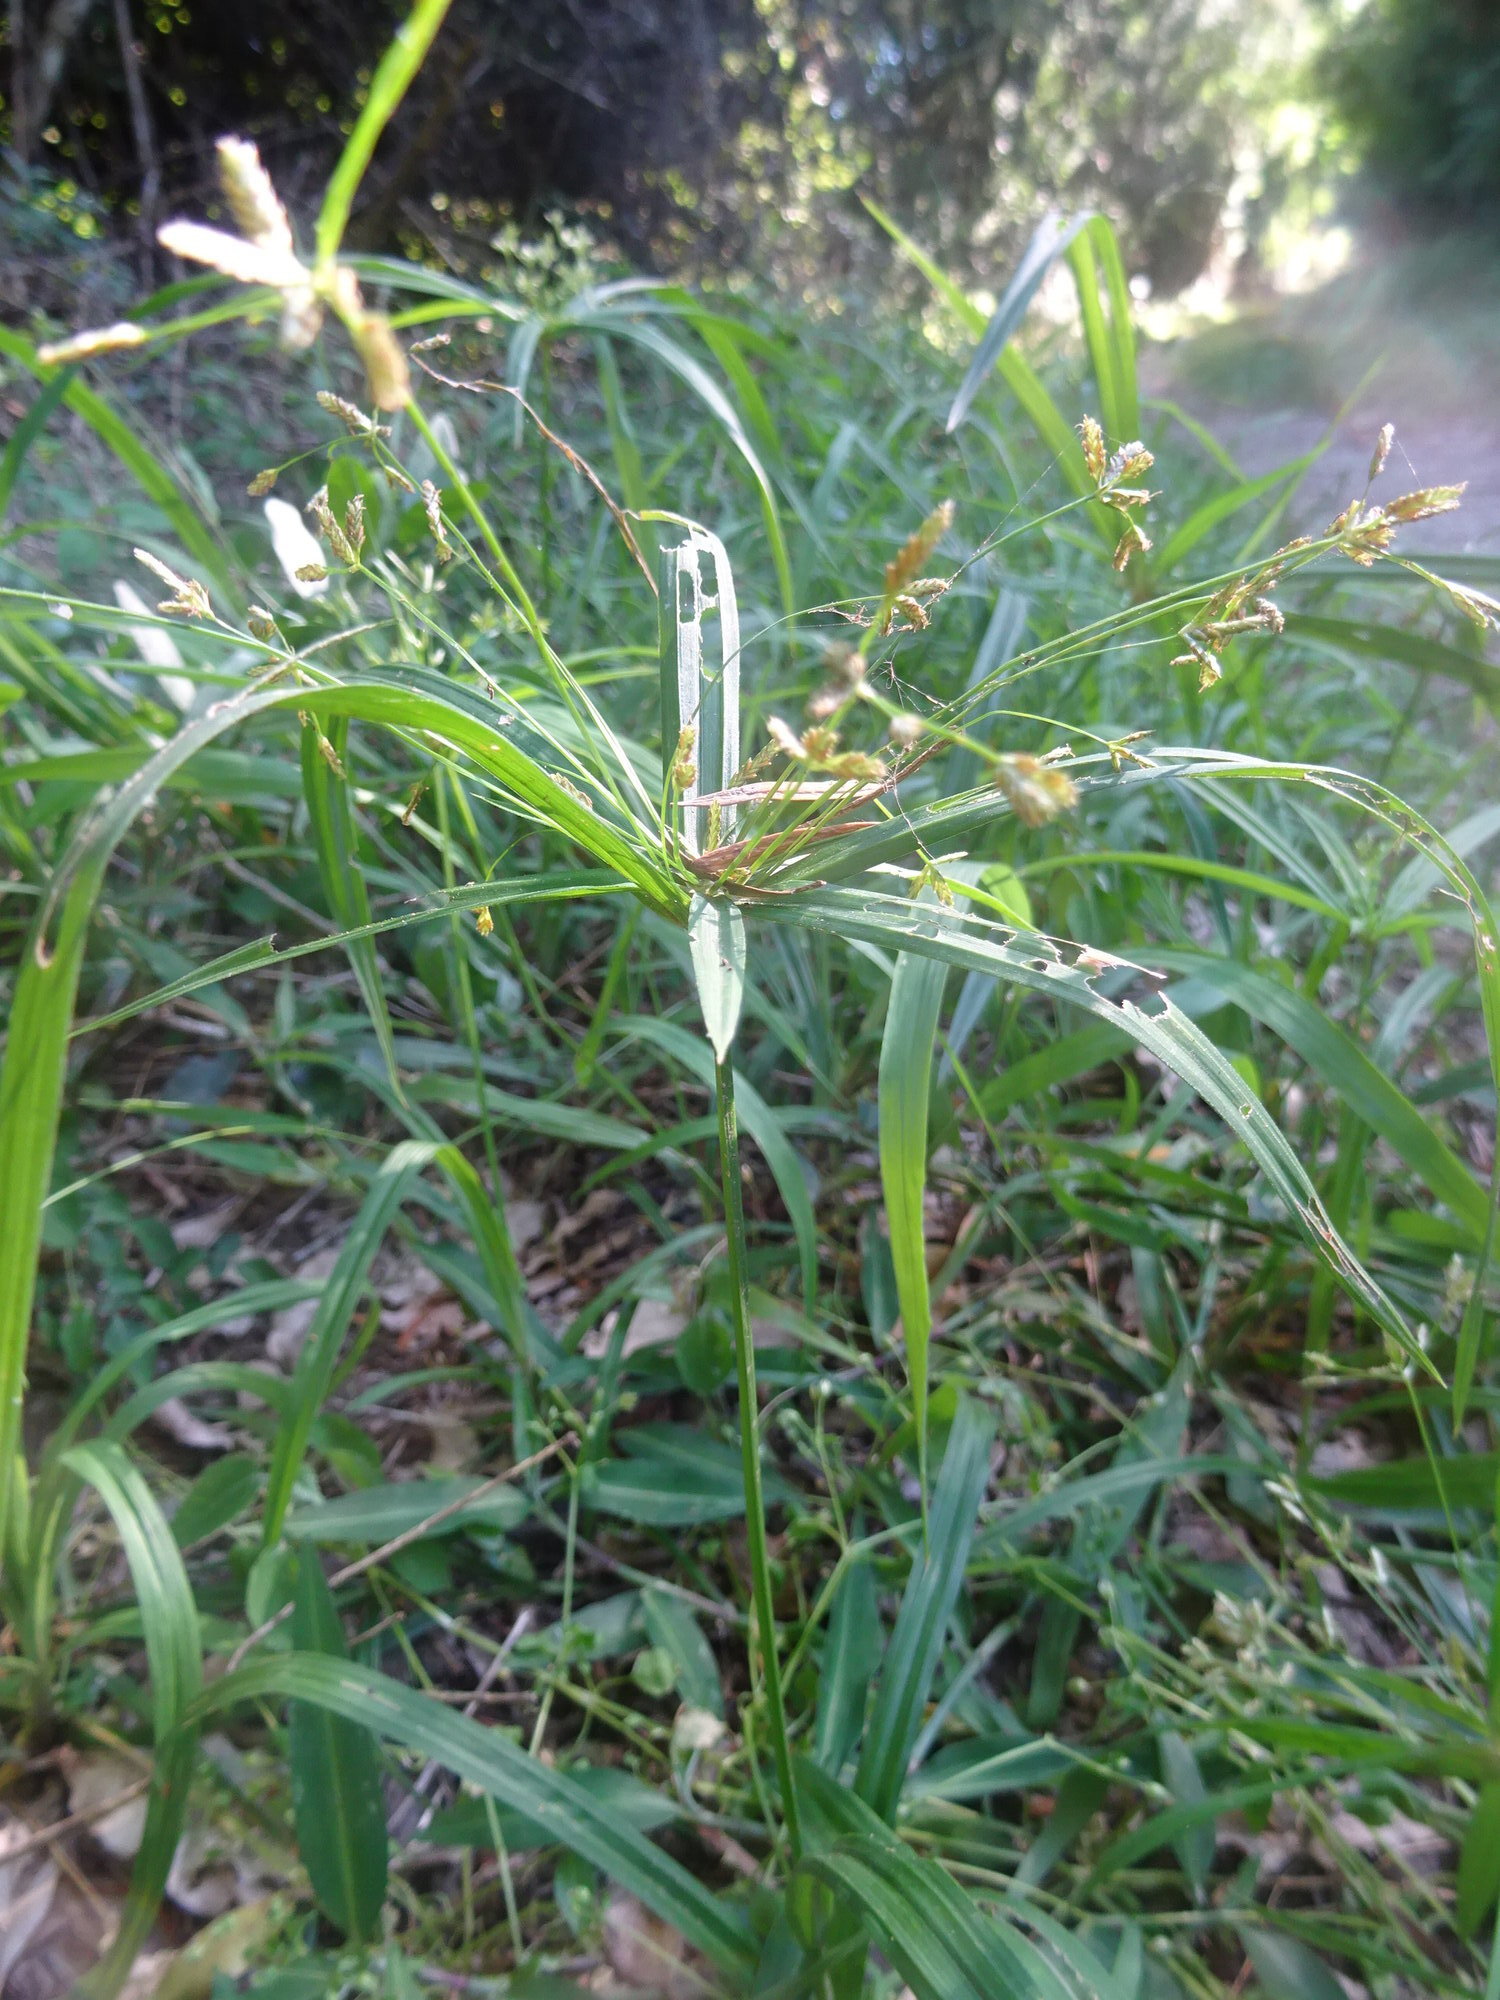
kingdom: Plantae
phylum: Tracheophyta
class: Liliopsida
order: Poales
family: Cyperaceae
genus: Cyperus
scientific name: Cyperus albostriatus
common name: Dwarf umbrella-grass
